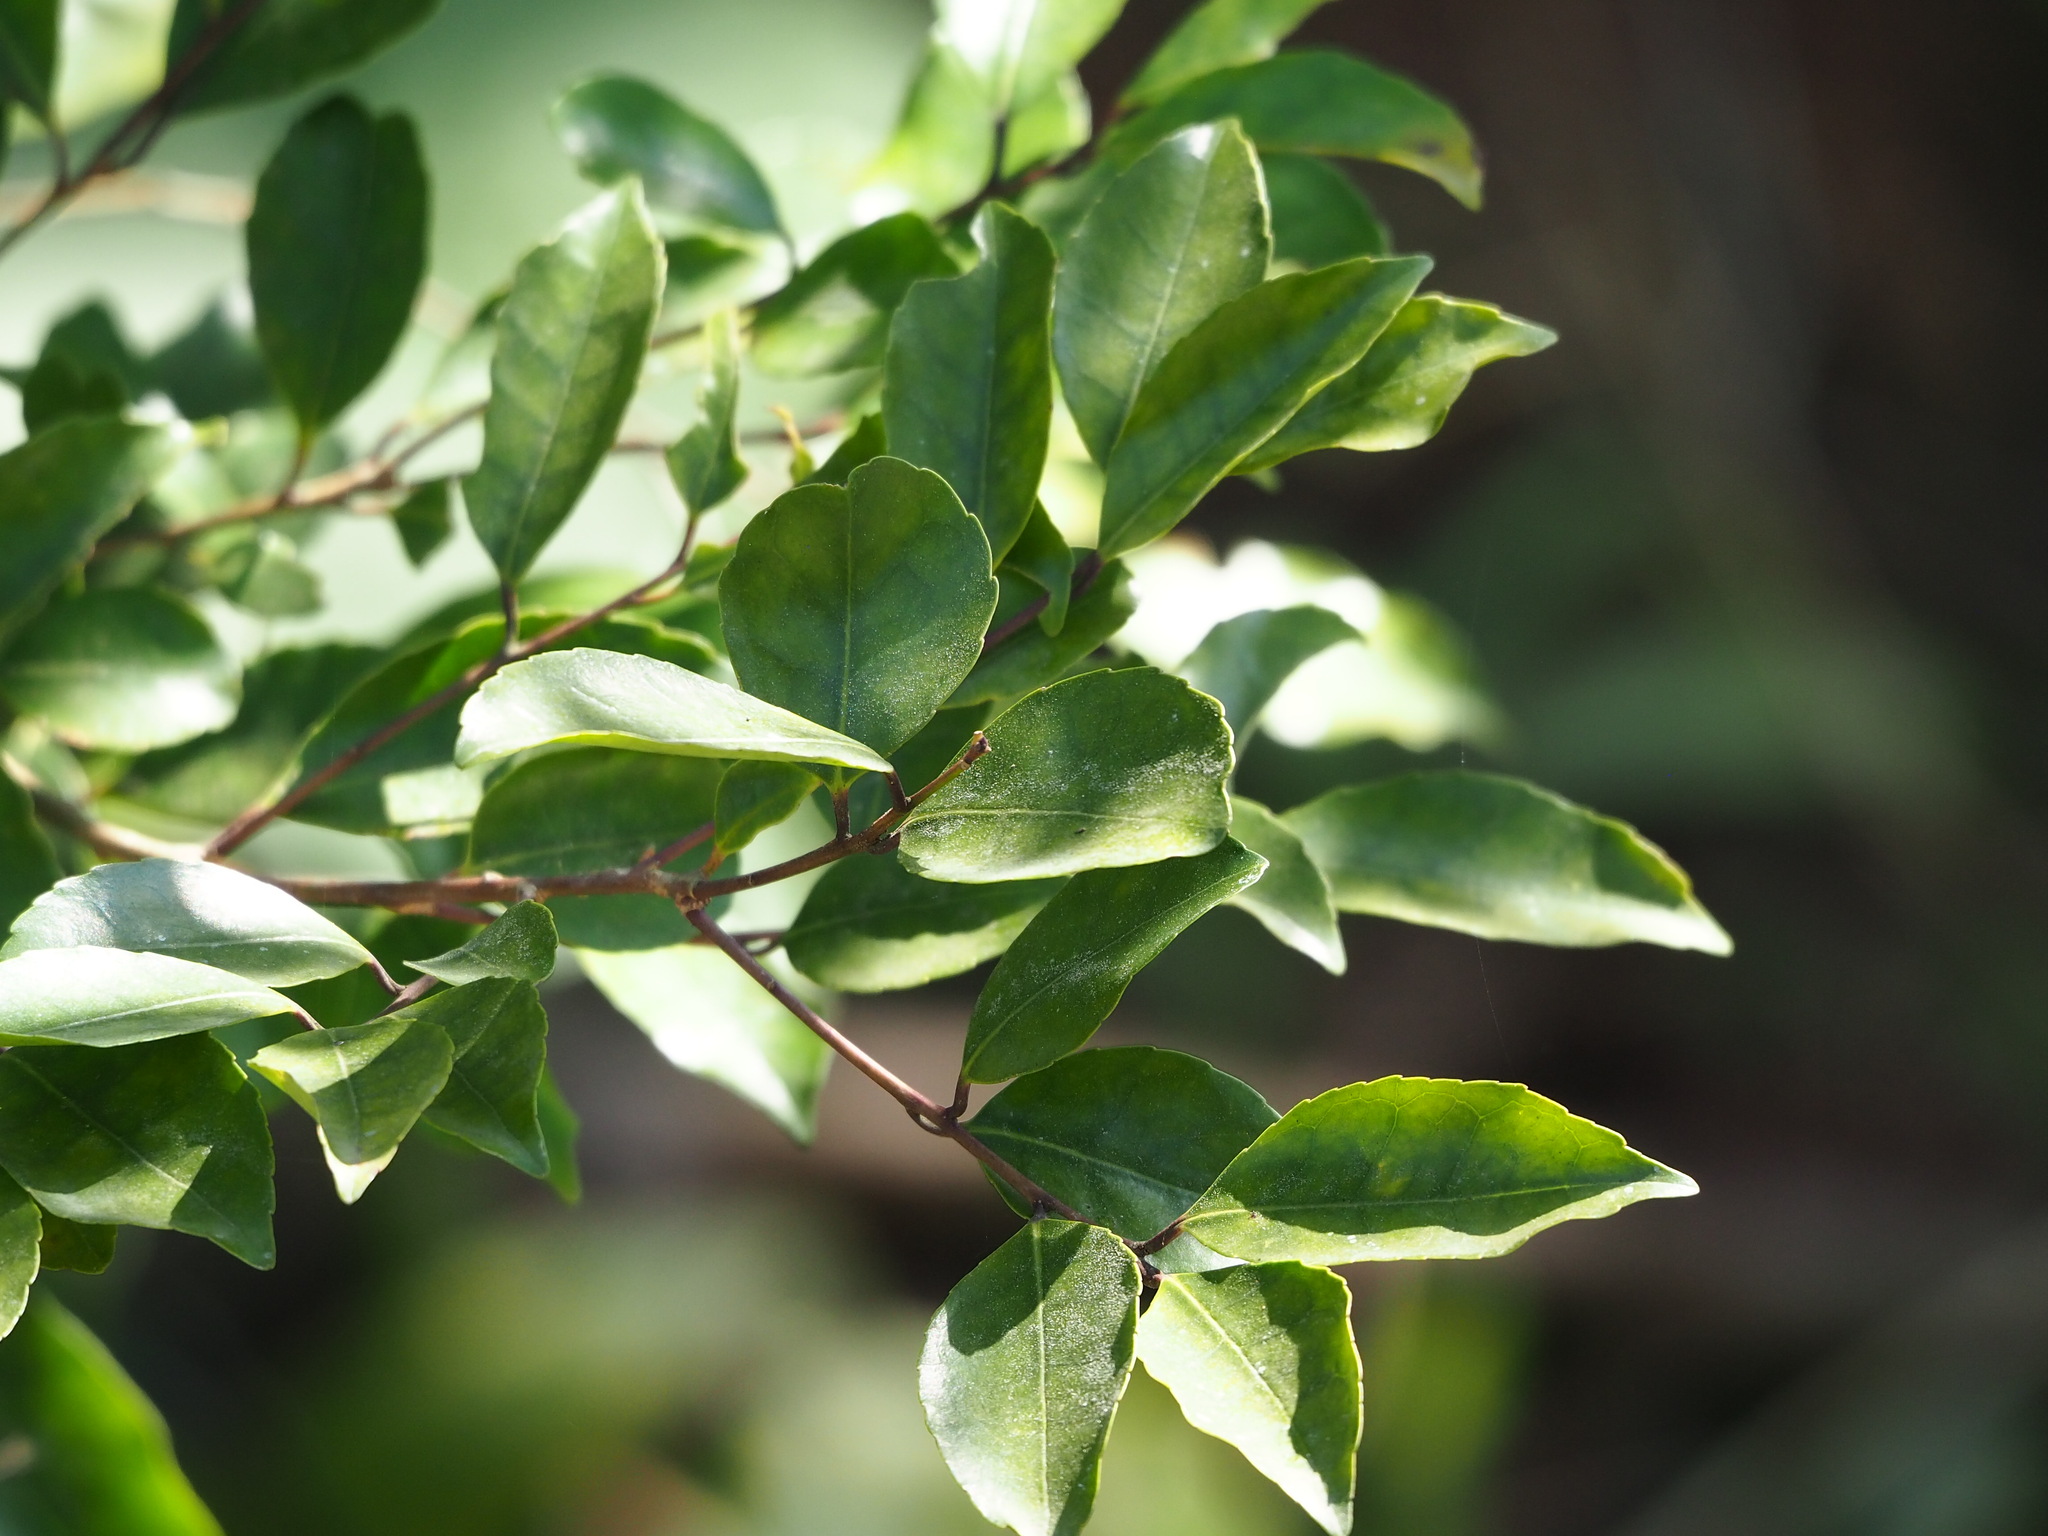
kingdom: Plantae
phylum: Tracheophyta
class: Magnoliopsida
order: Aquifoliales
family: Aquifoliaceae
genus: Ilex
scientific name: Ilex uraiensis
